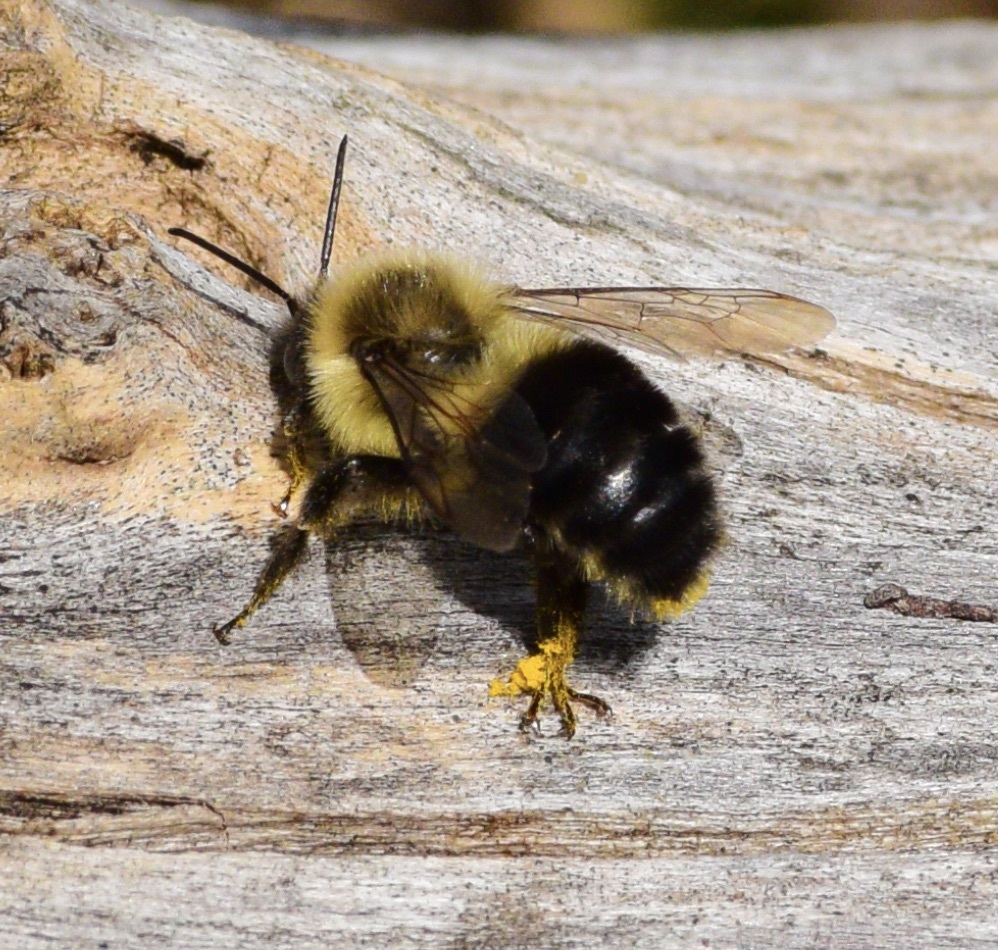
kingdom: Animalia
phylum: Arthropoda
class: Insecta
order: Hymenoptera
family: Apidae
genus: Bombus
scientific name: Bombus impatiens
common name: Common eastern bumble bee
